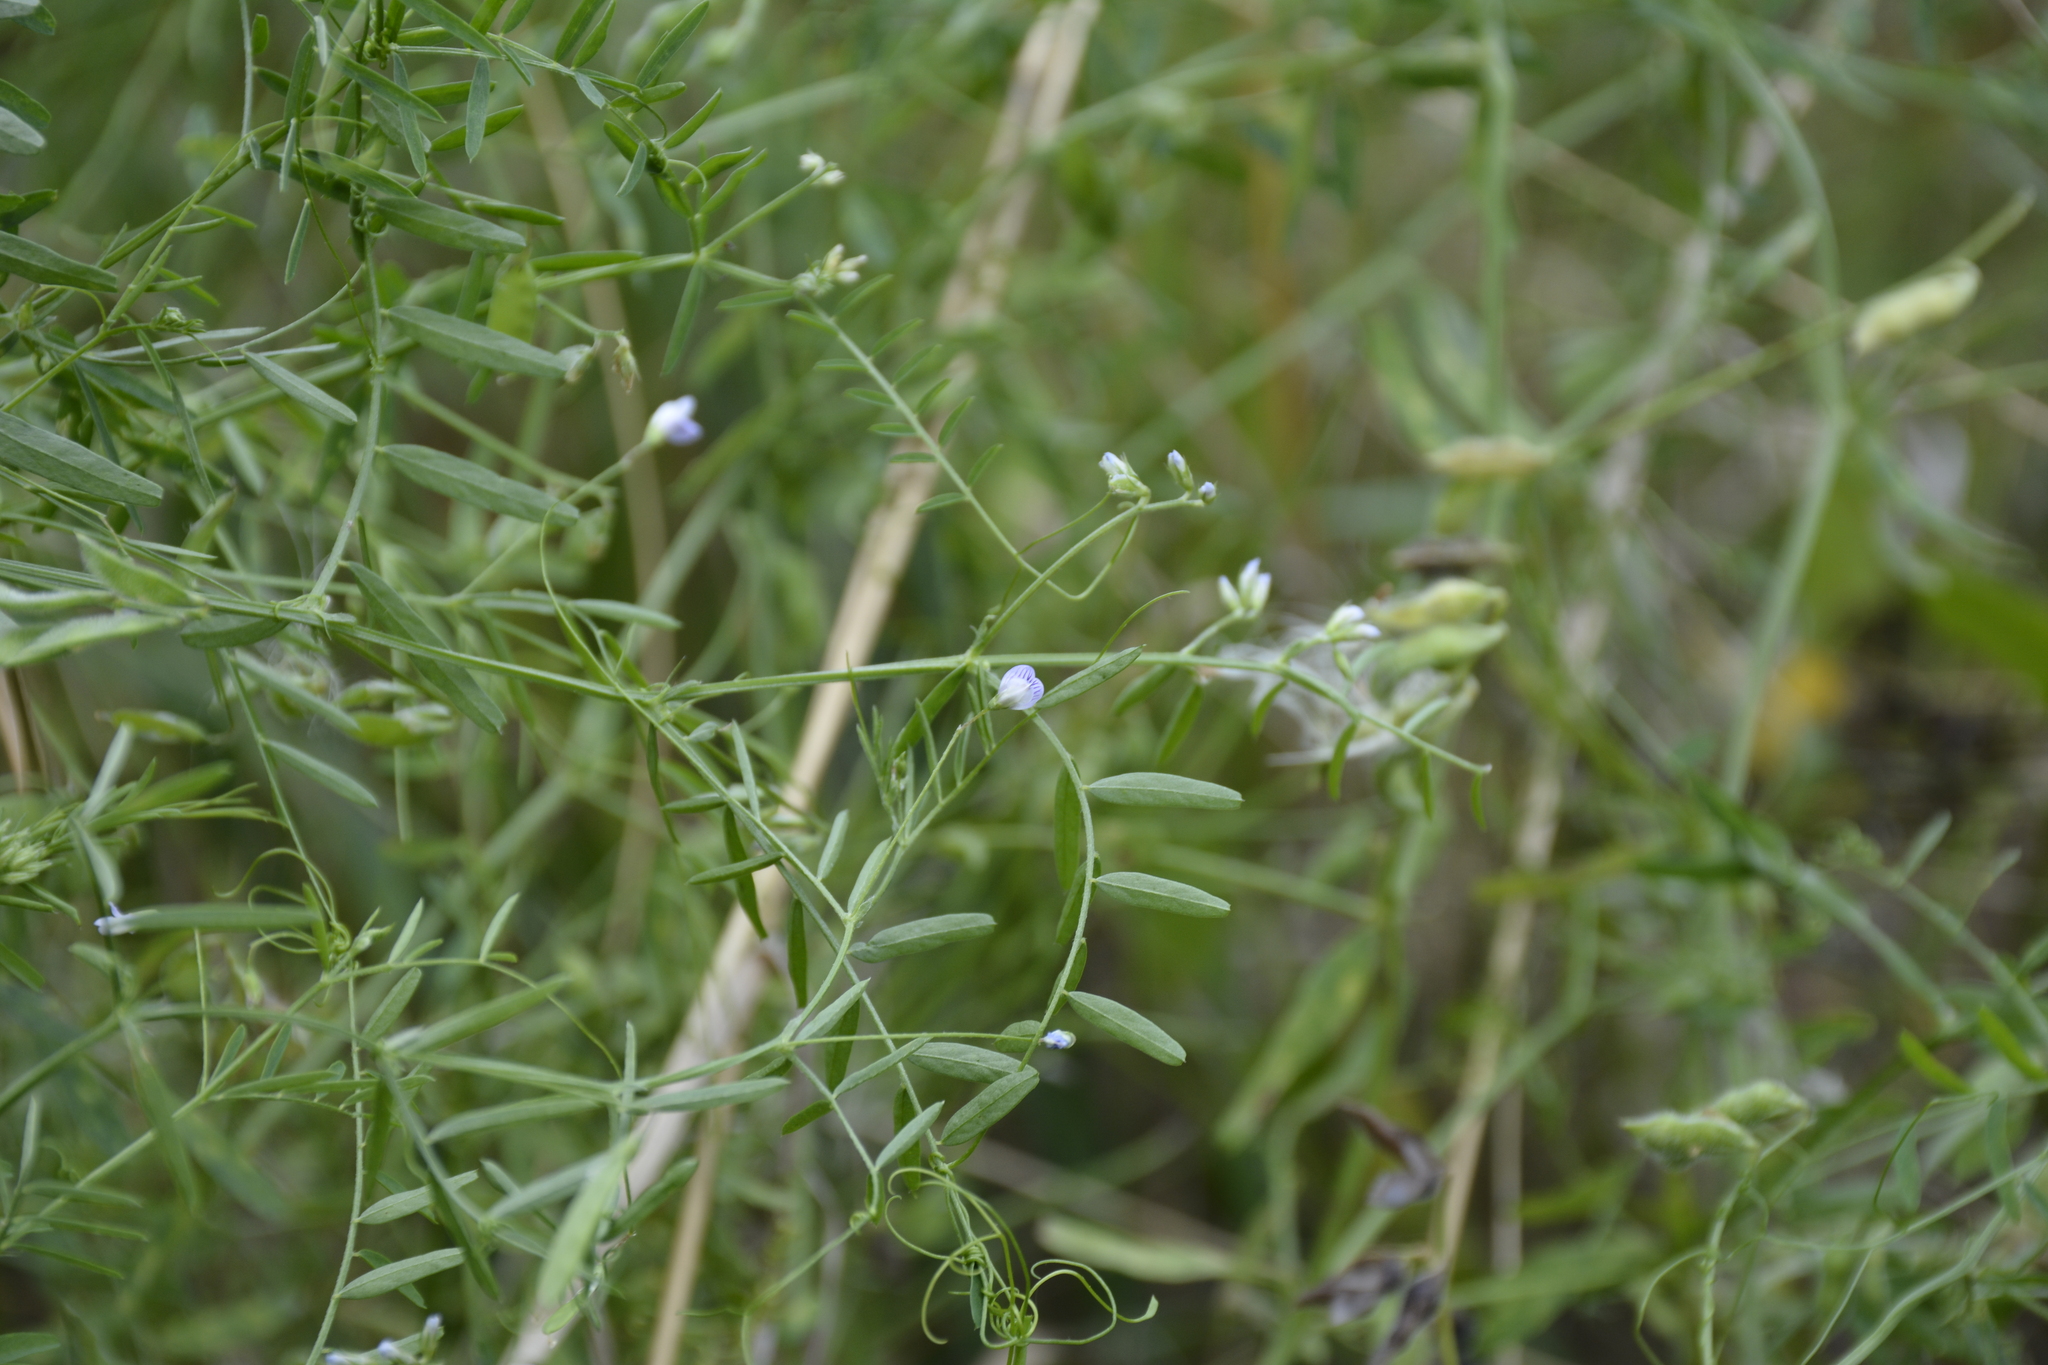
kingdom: Plantae
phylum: Tracheophyta
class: Magnoliopsida
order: Fabales
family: Fabaceae
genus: Vicia
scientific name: Vicia hirsuta
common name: Tiny vetch
